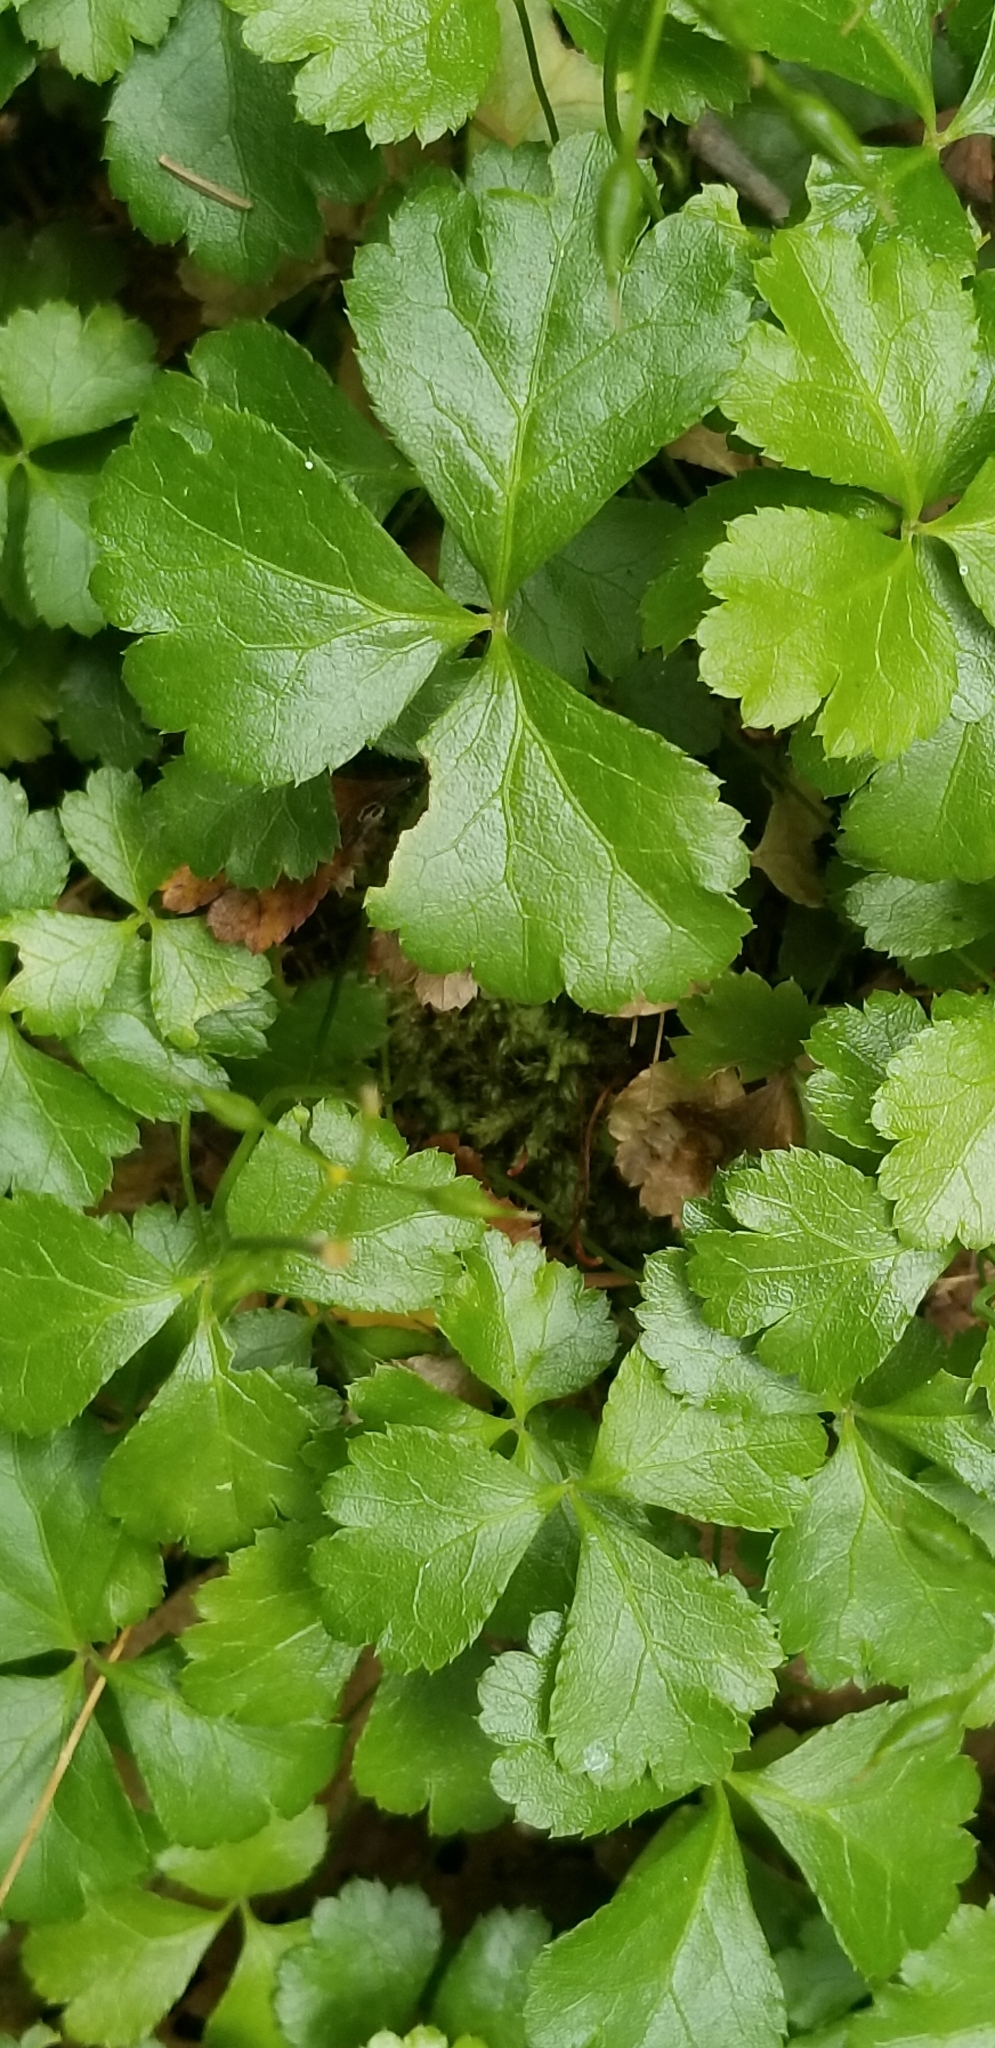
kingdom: Plantae
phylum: Tracheophyta
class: Magnoliopsida
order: Ranunculales
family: Ranunculaceae
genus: Coptis
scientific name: Coptis trifolia
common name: Canker-root
